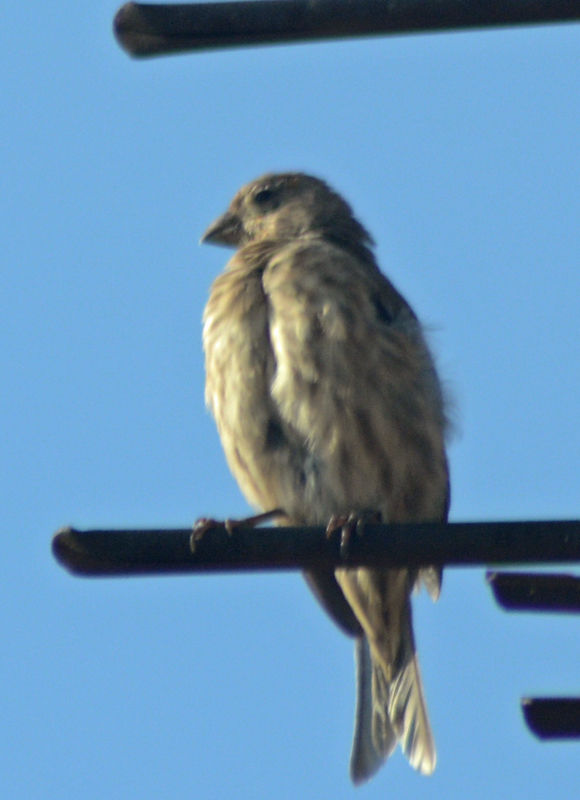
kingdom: Animalia
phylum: Chordata
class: Aves
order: Passeriformes
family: Fringillidae
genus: Haemorhous
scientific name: Haemorhous mexicanus
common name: House finch
